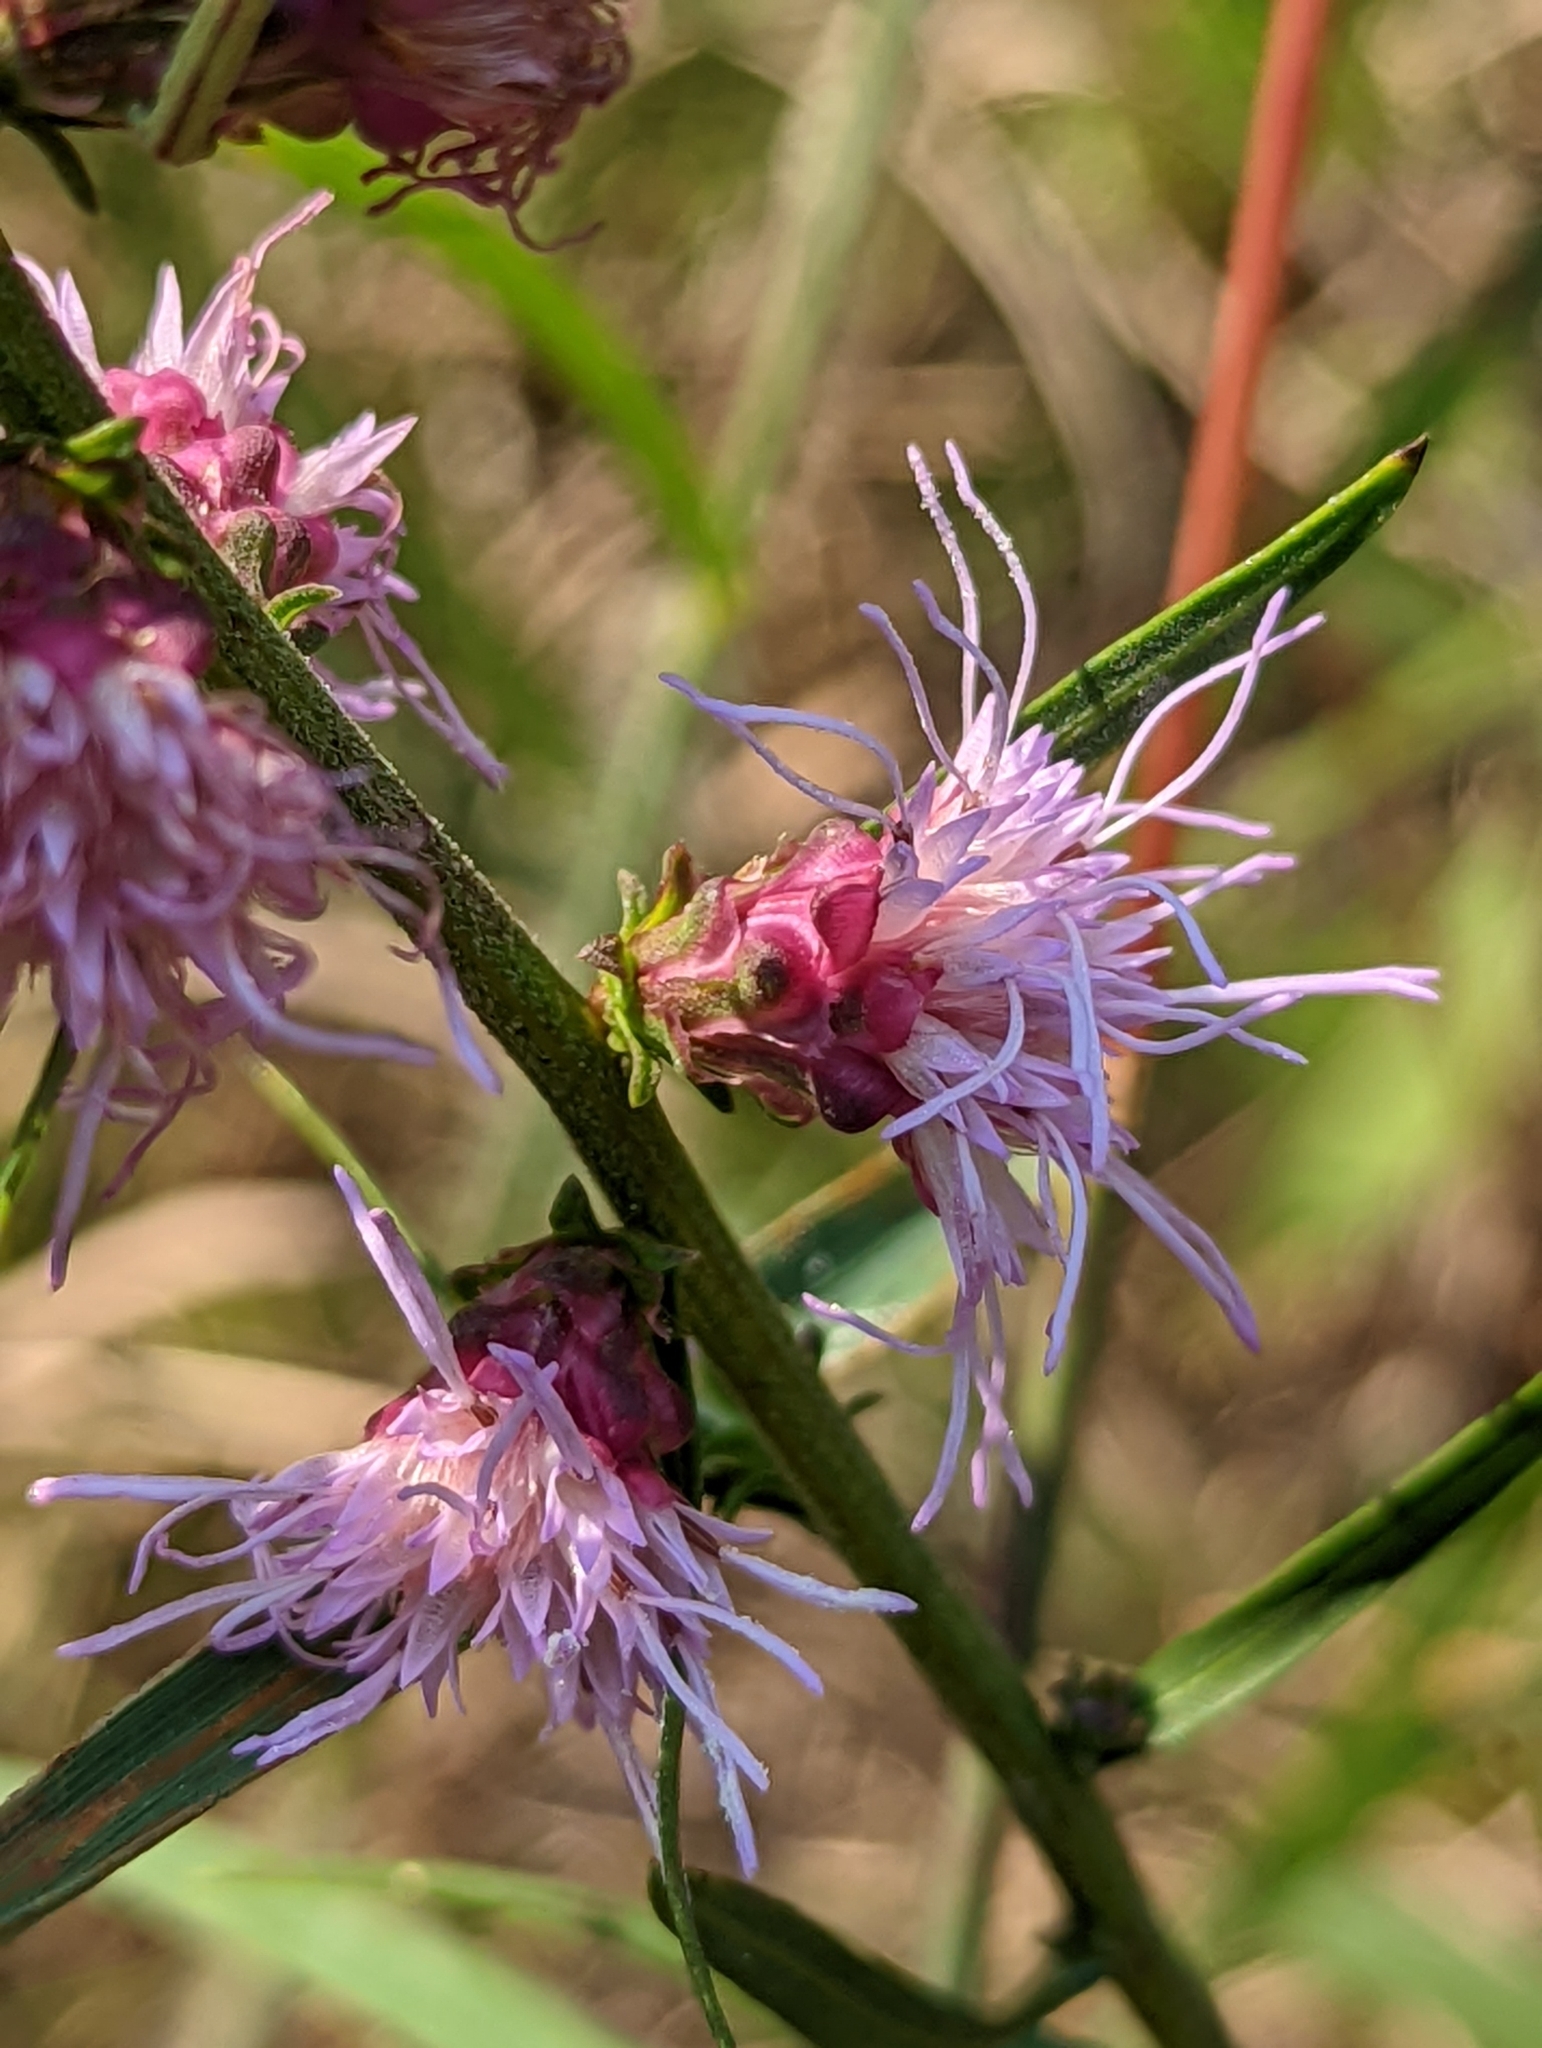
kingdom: Plantae
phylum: Tracheophyta
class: Magnoliopsida
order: Asterales
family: Asteraceae
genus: Liatris
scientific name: Liatris aspera
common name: Lacerate blazing-star
